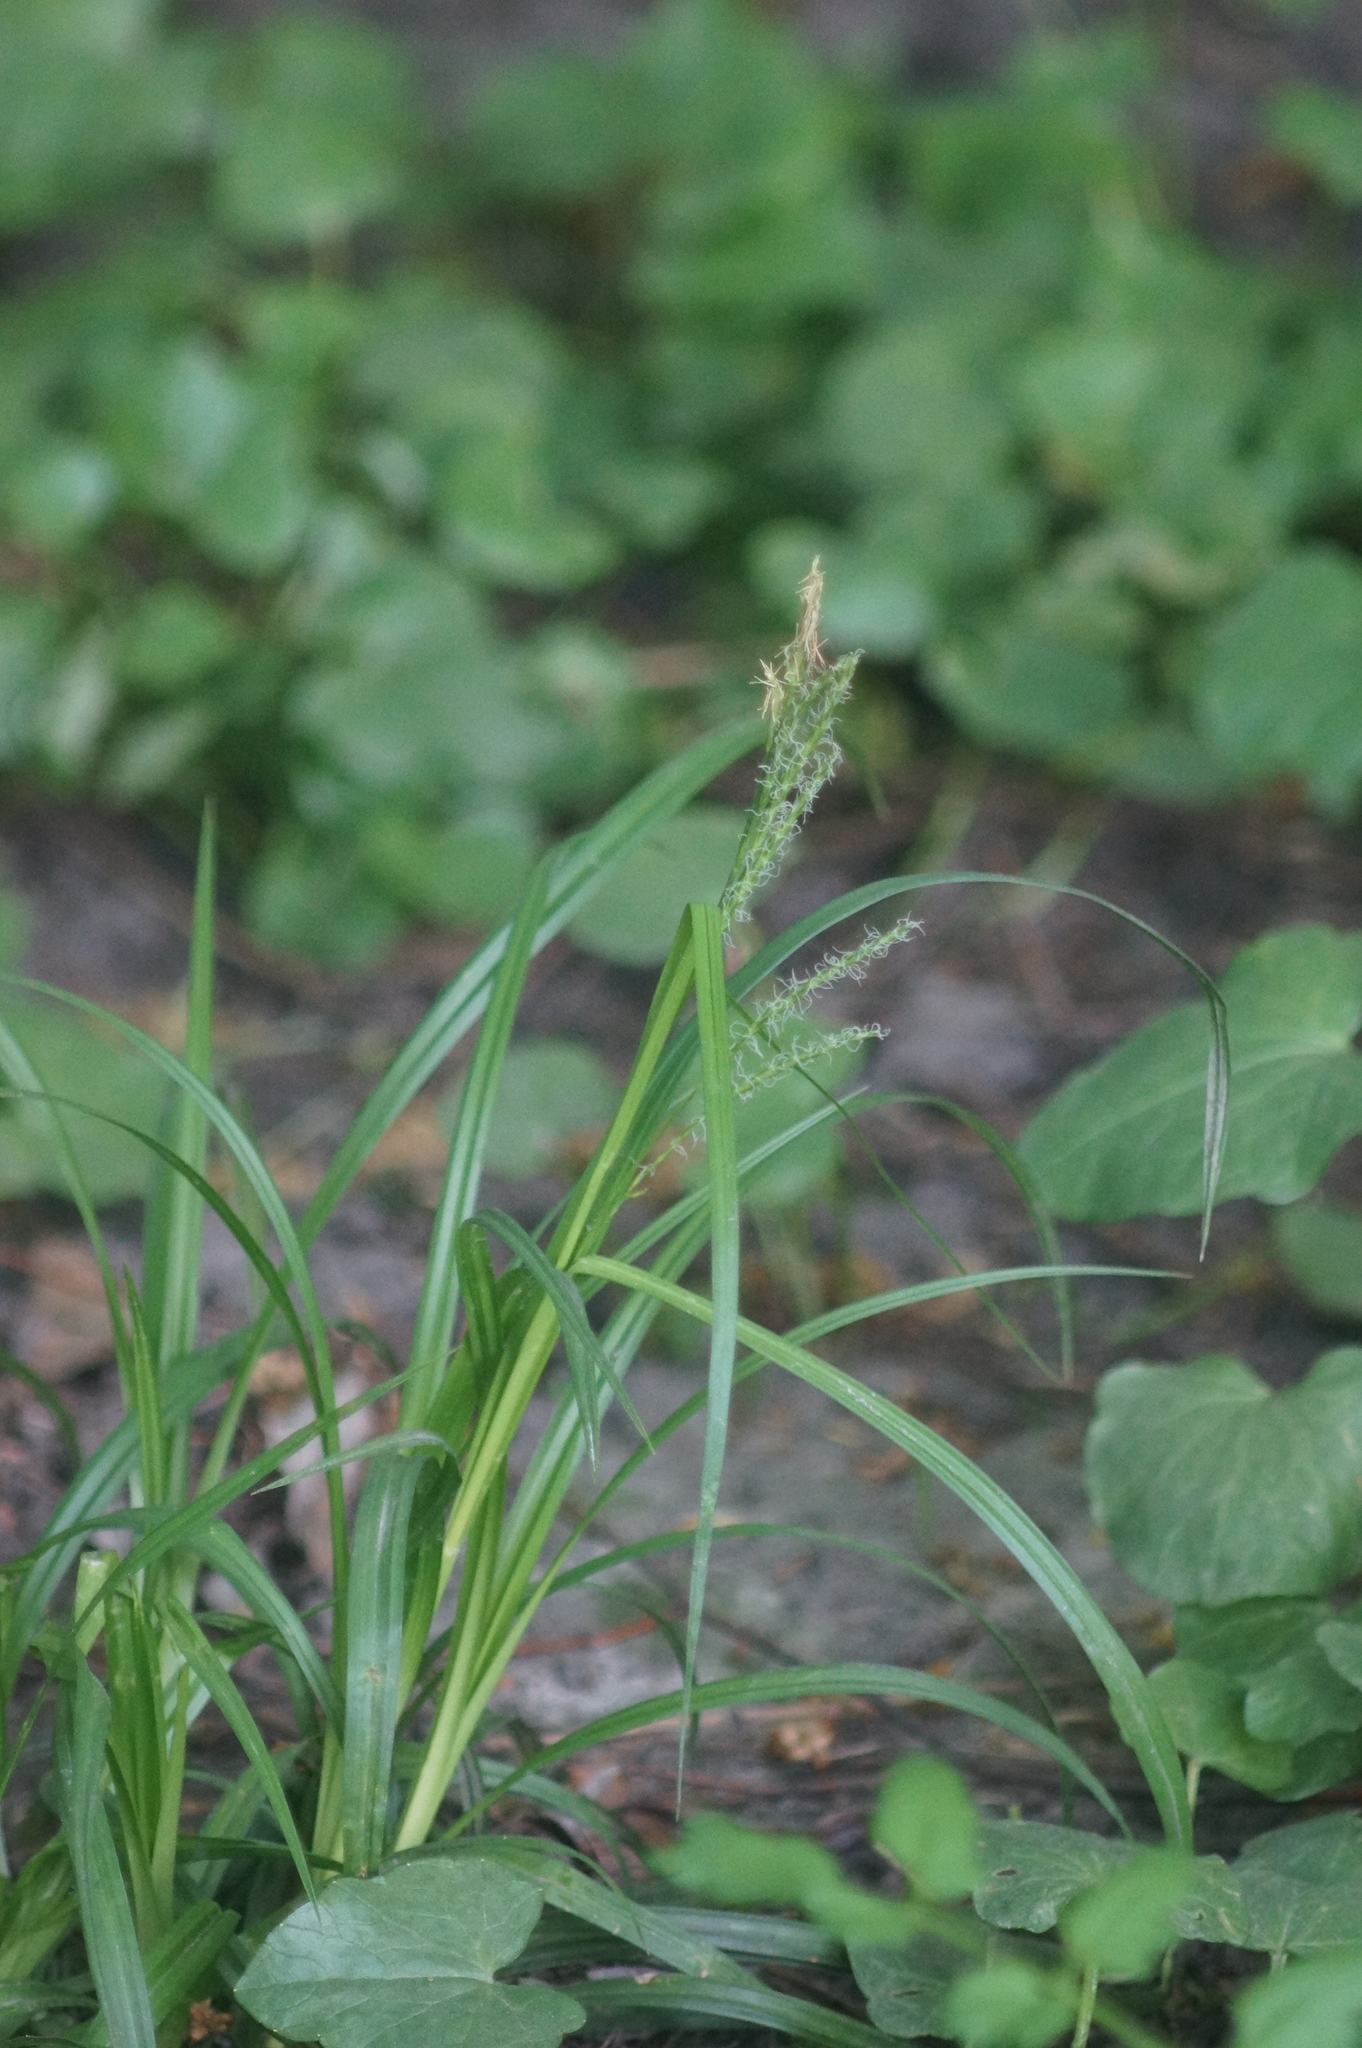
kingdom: Plantae
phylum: Tracheophyta
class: Liliopsida
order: Poales
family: Cyperaceae
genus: Carex
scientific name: Carex sylvatica
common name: Wood-sedge
